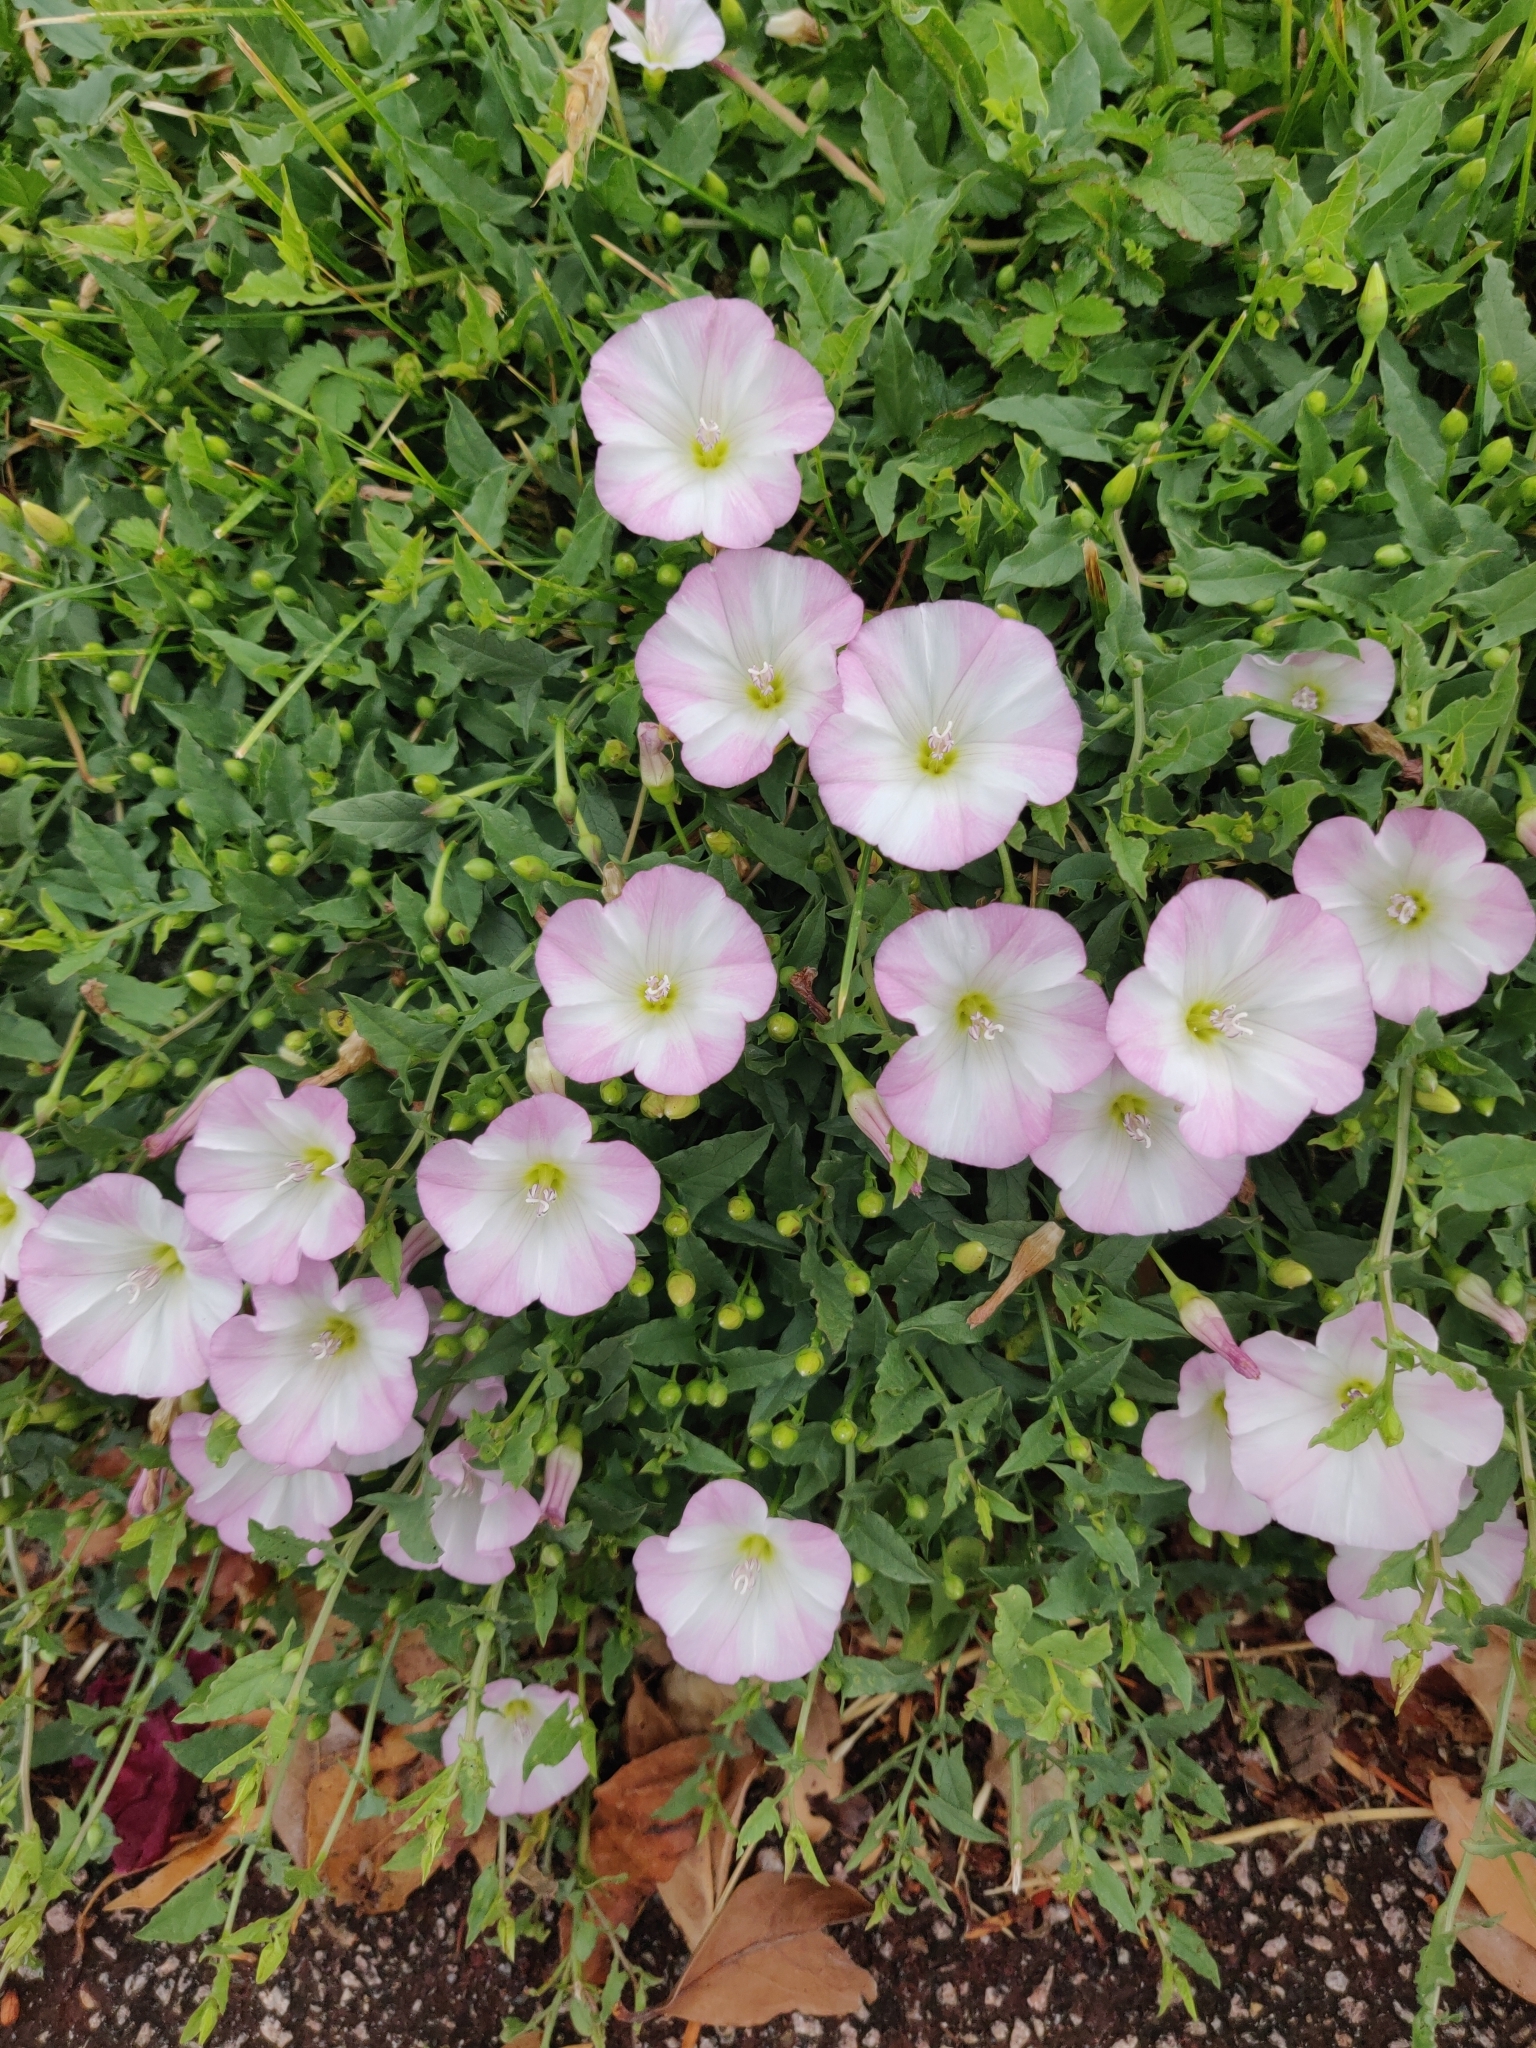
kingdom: Plantae
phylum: Tracheophyta
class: Magnoliopsida
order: Solanales
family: Convolvulaceae
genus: Convolvulus
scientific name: Convolvulus arvensis
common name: Field bindweed
